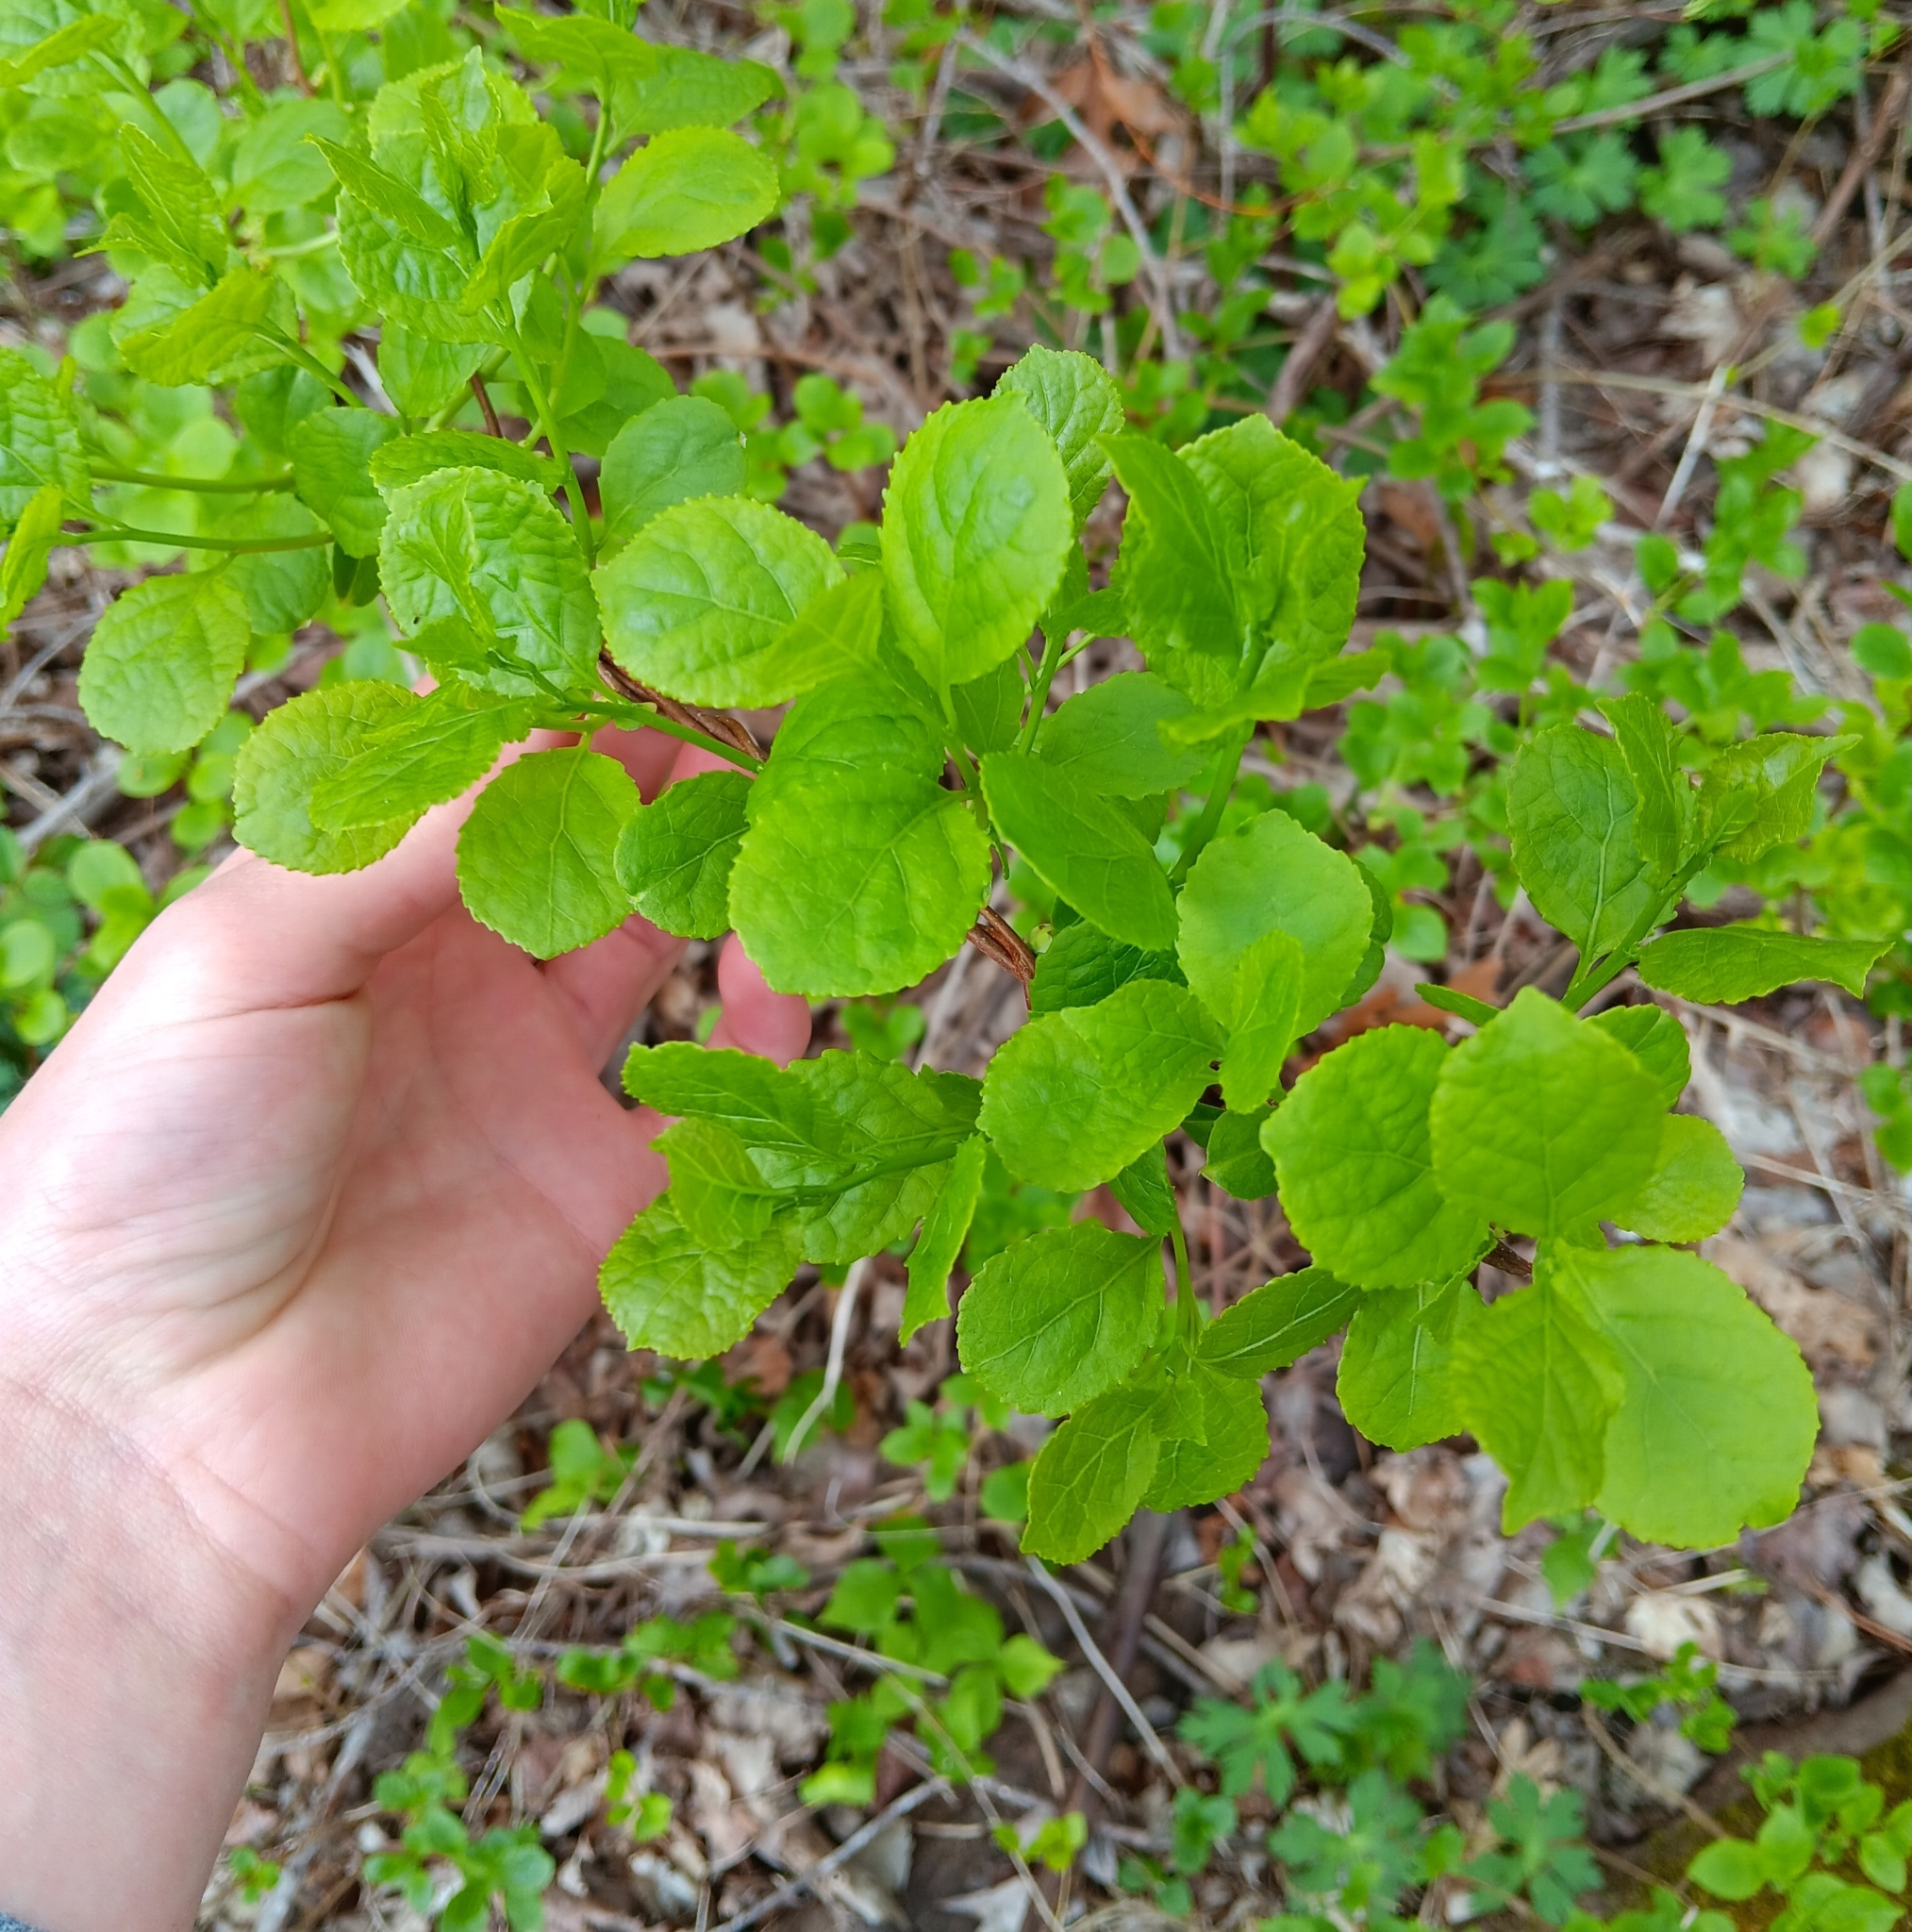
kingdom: Plantae
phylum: Tracheophyta
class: Magnoliopsida
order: Celastrales
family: Celastraceae
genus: Celastrus
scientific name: Celastrus orbiculatus
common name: Oriental bittersweet
